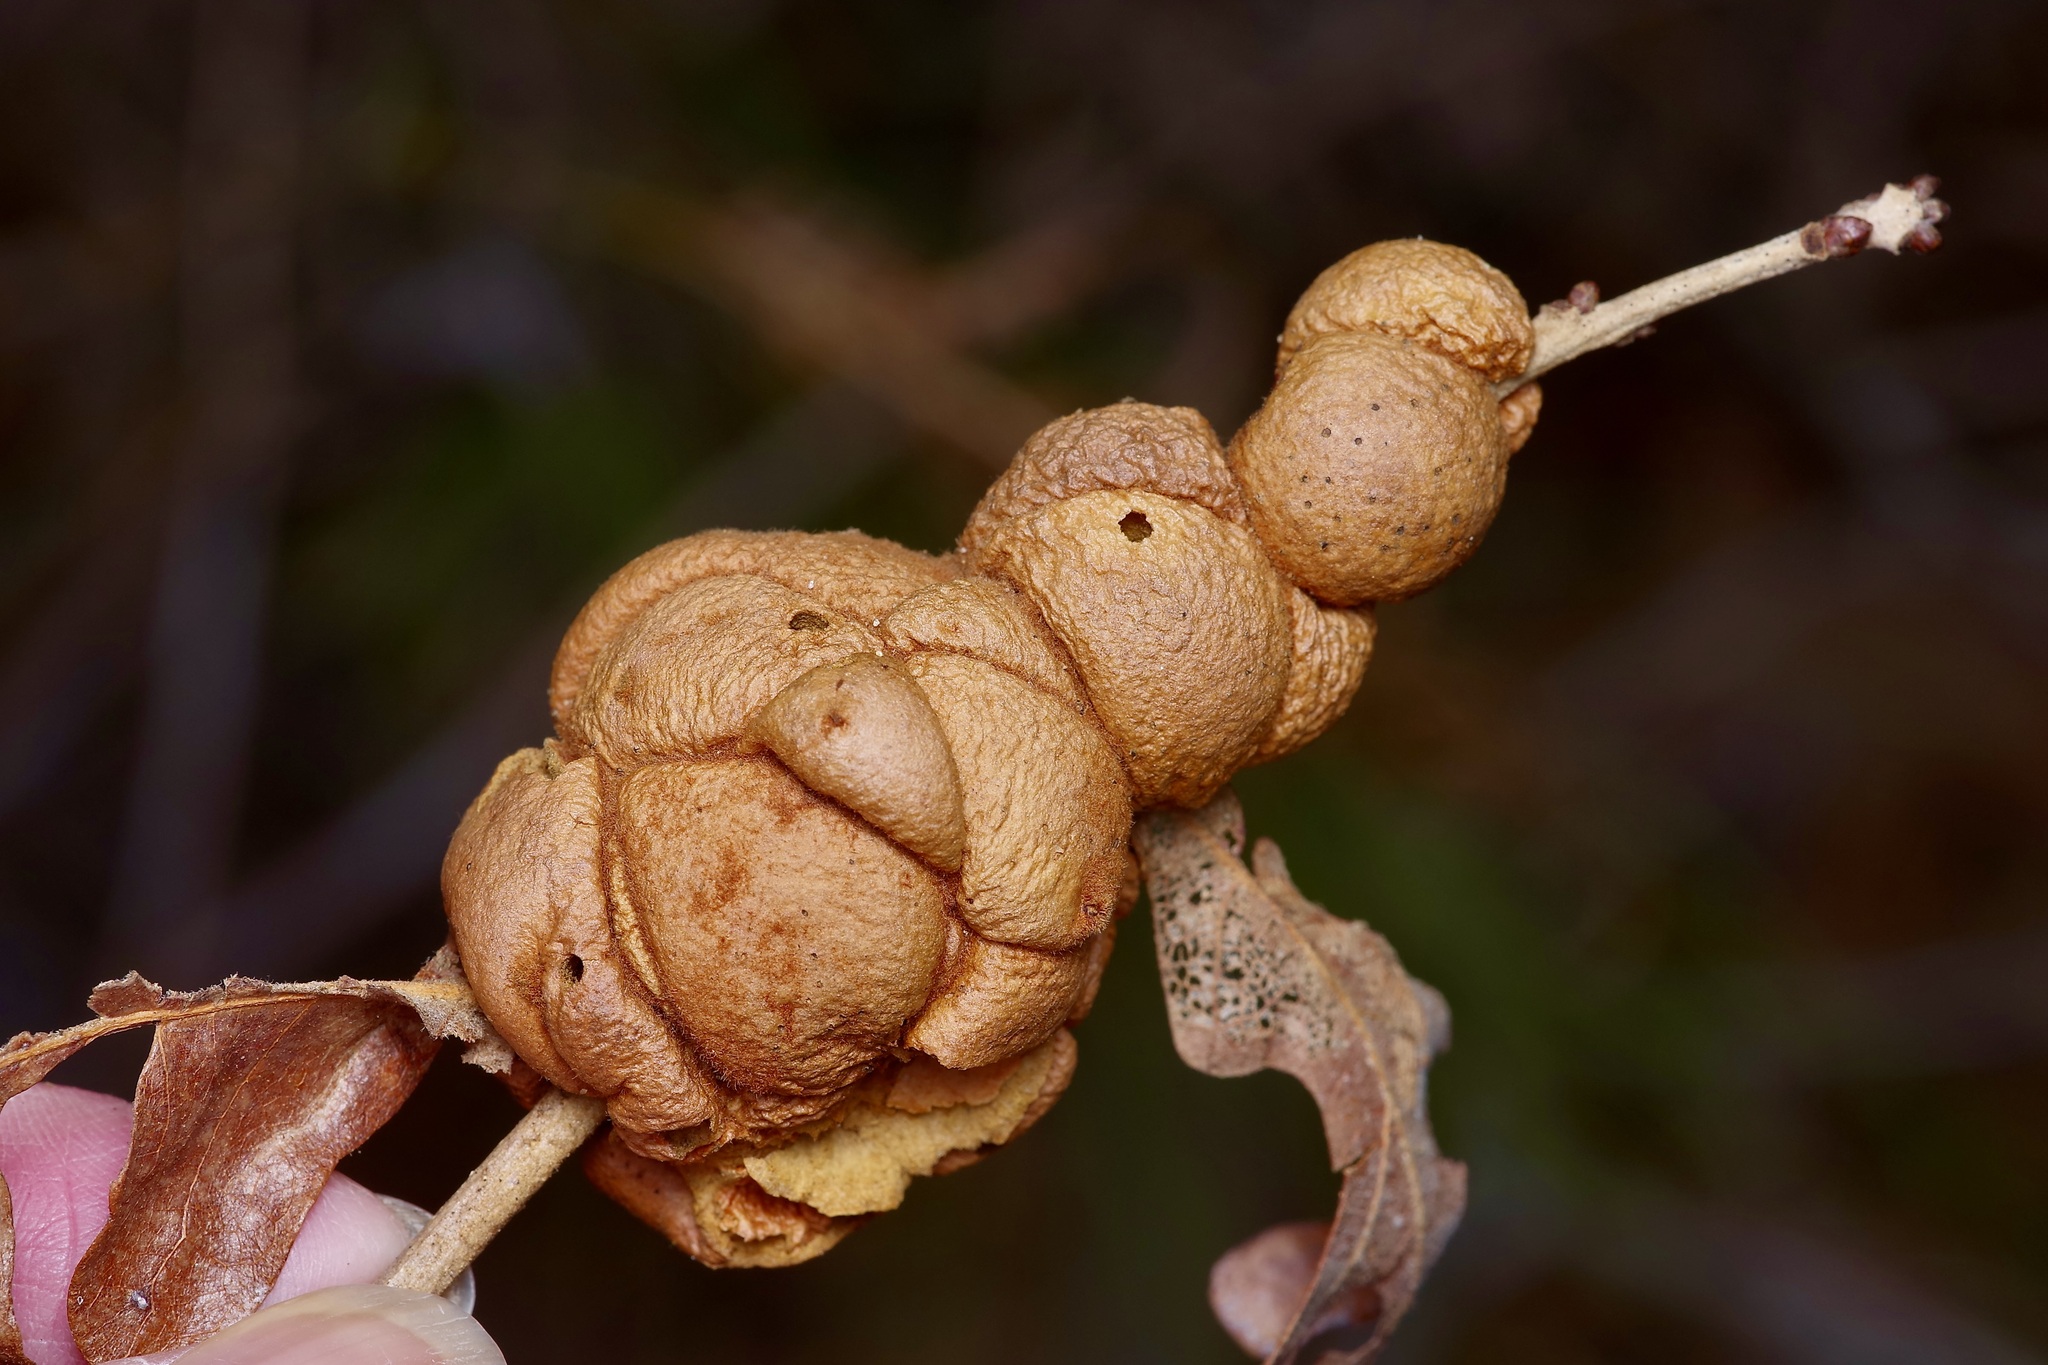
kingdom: Animalia
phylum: Arthropoda
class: Insecta
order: Hymenoptera
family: Cynipidae
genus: Disholcaspis
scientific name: Disholcaspis
